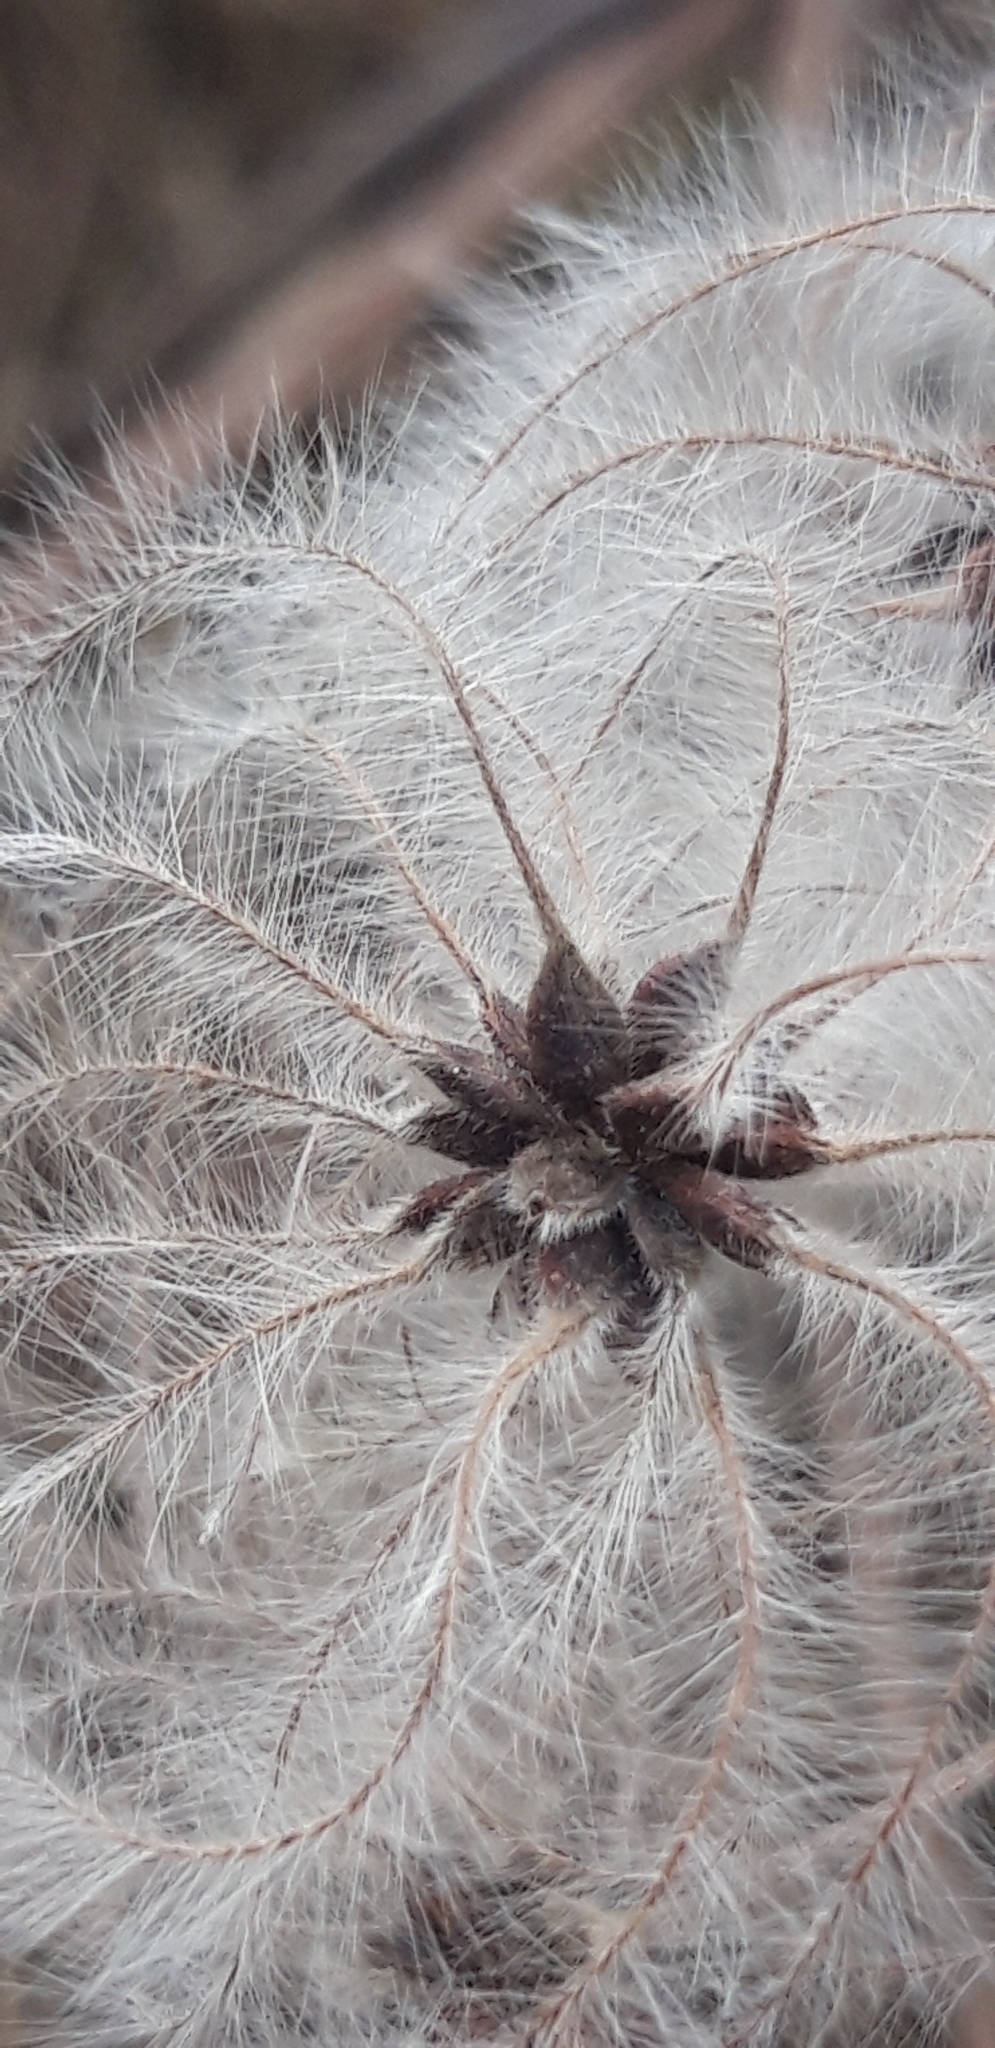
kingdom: Plantae
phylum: Tracheophyta
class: Magnoliopsida
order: Ranunculales
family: Ranunculaceae
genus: Clematis
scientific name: Clematis vitalba
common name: Evergreen clematis
